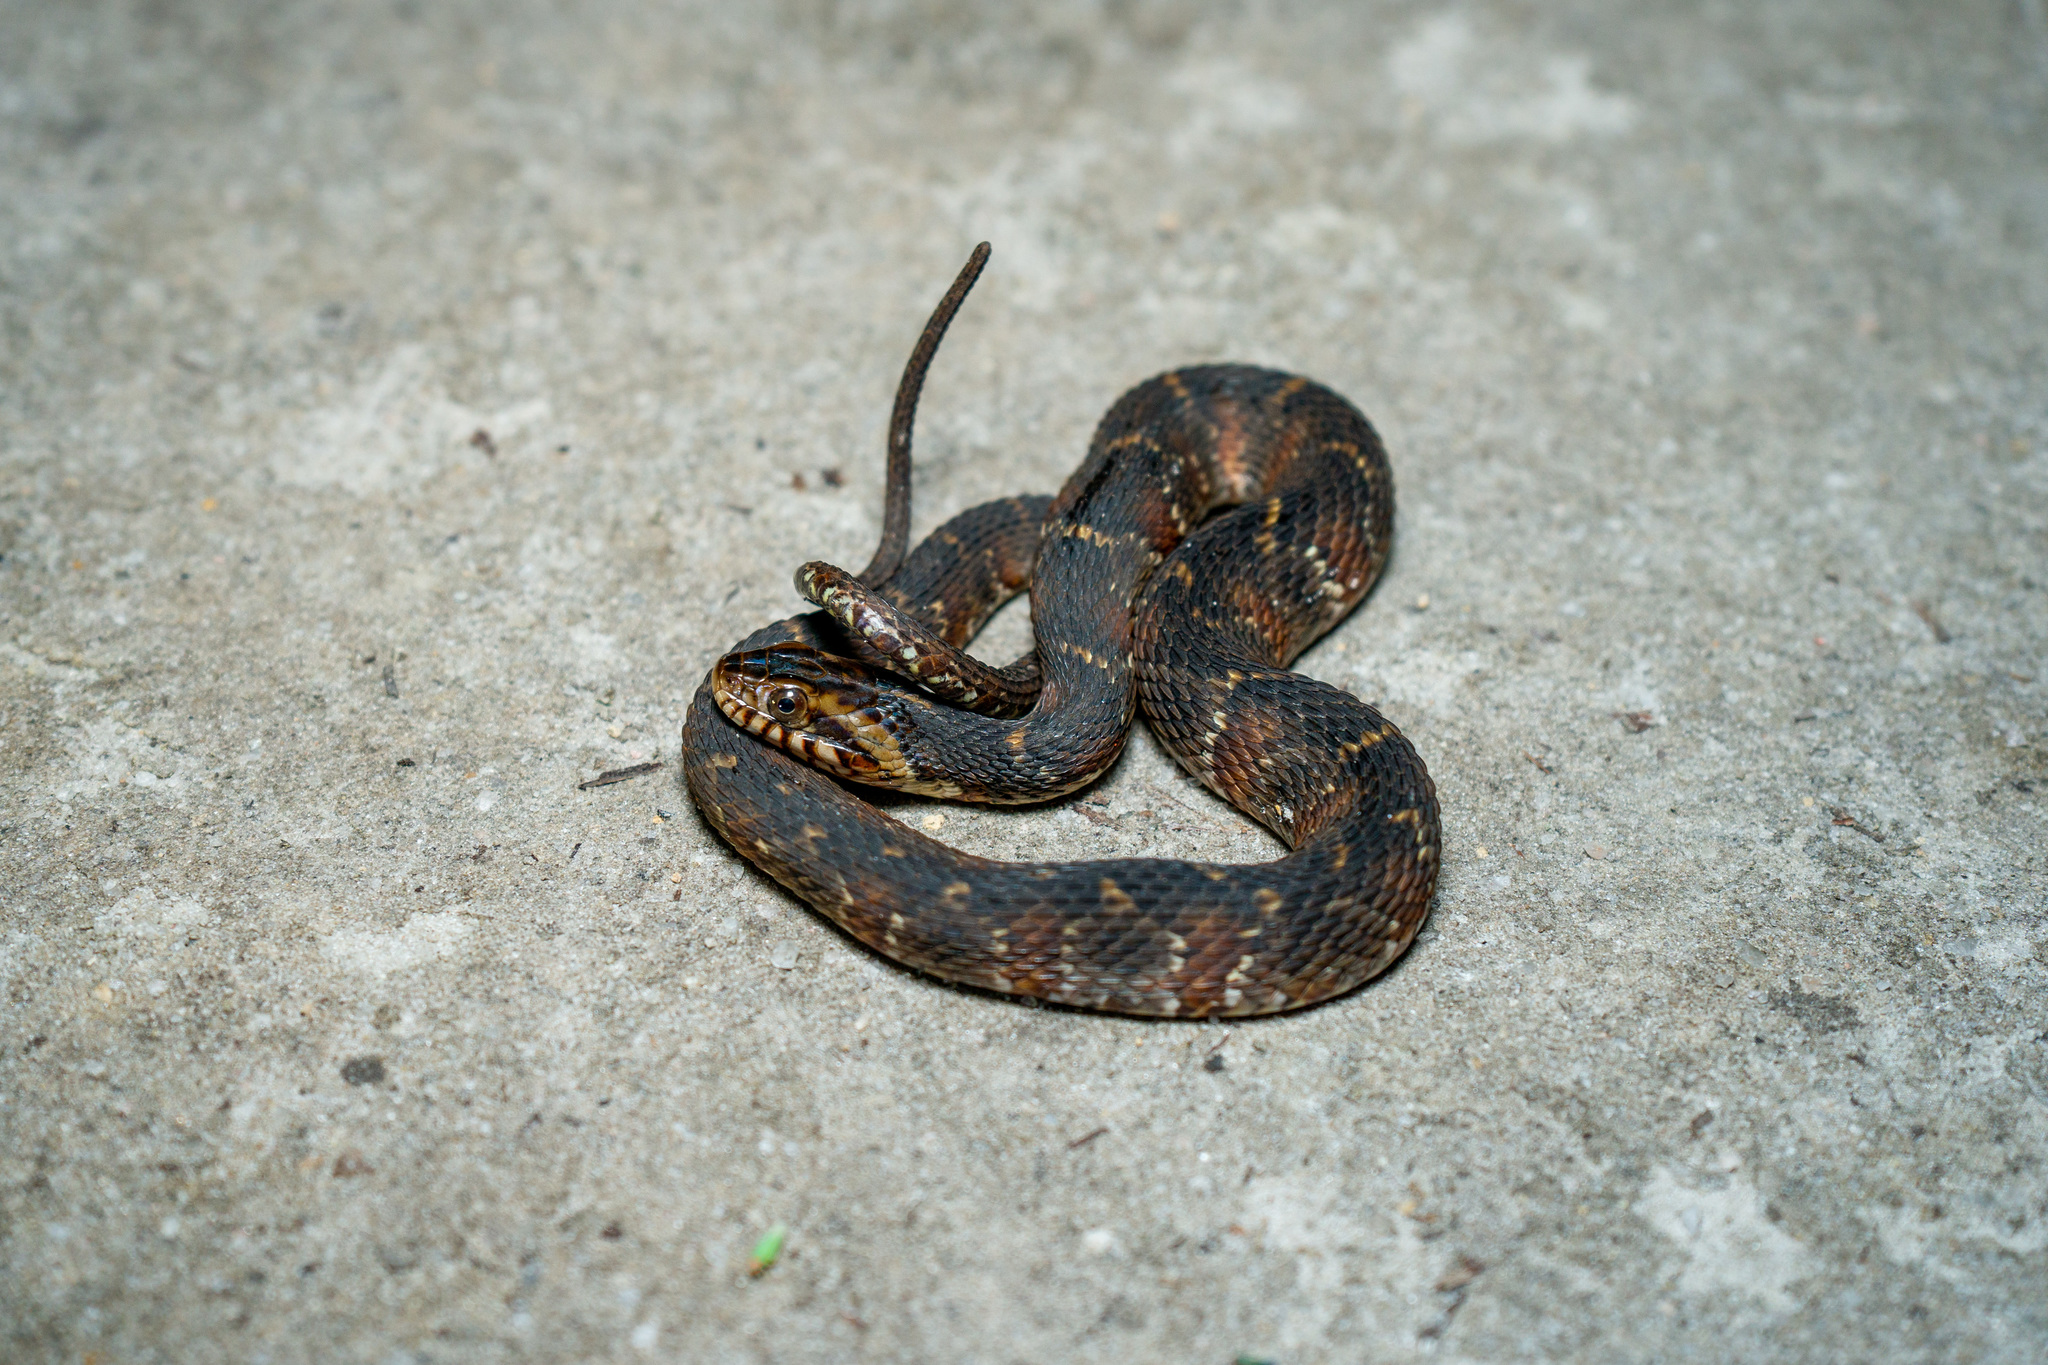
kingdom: Animalia
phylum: Chordata
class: Squamata
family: Colubridae
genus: Nerodia
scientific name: Nerodia fasciata
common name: Southern water snake
